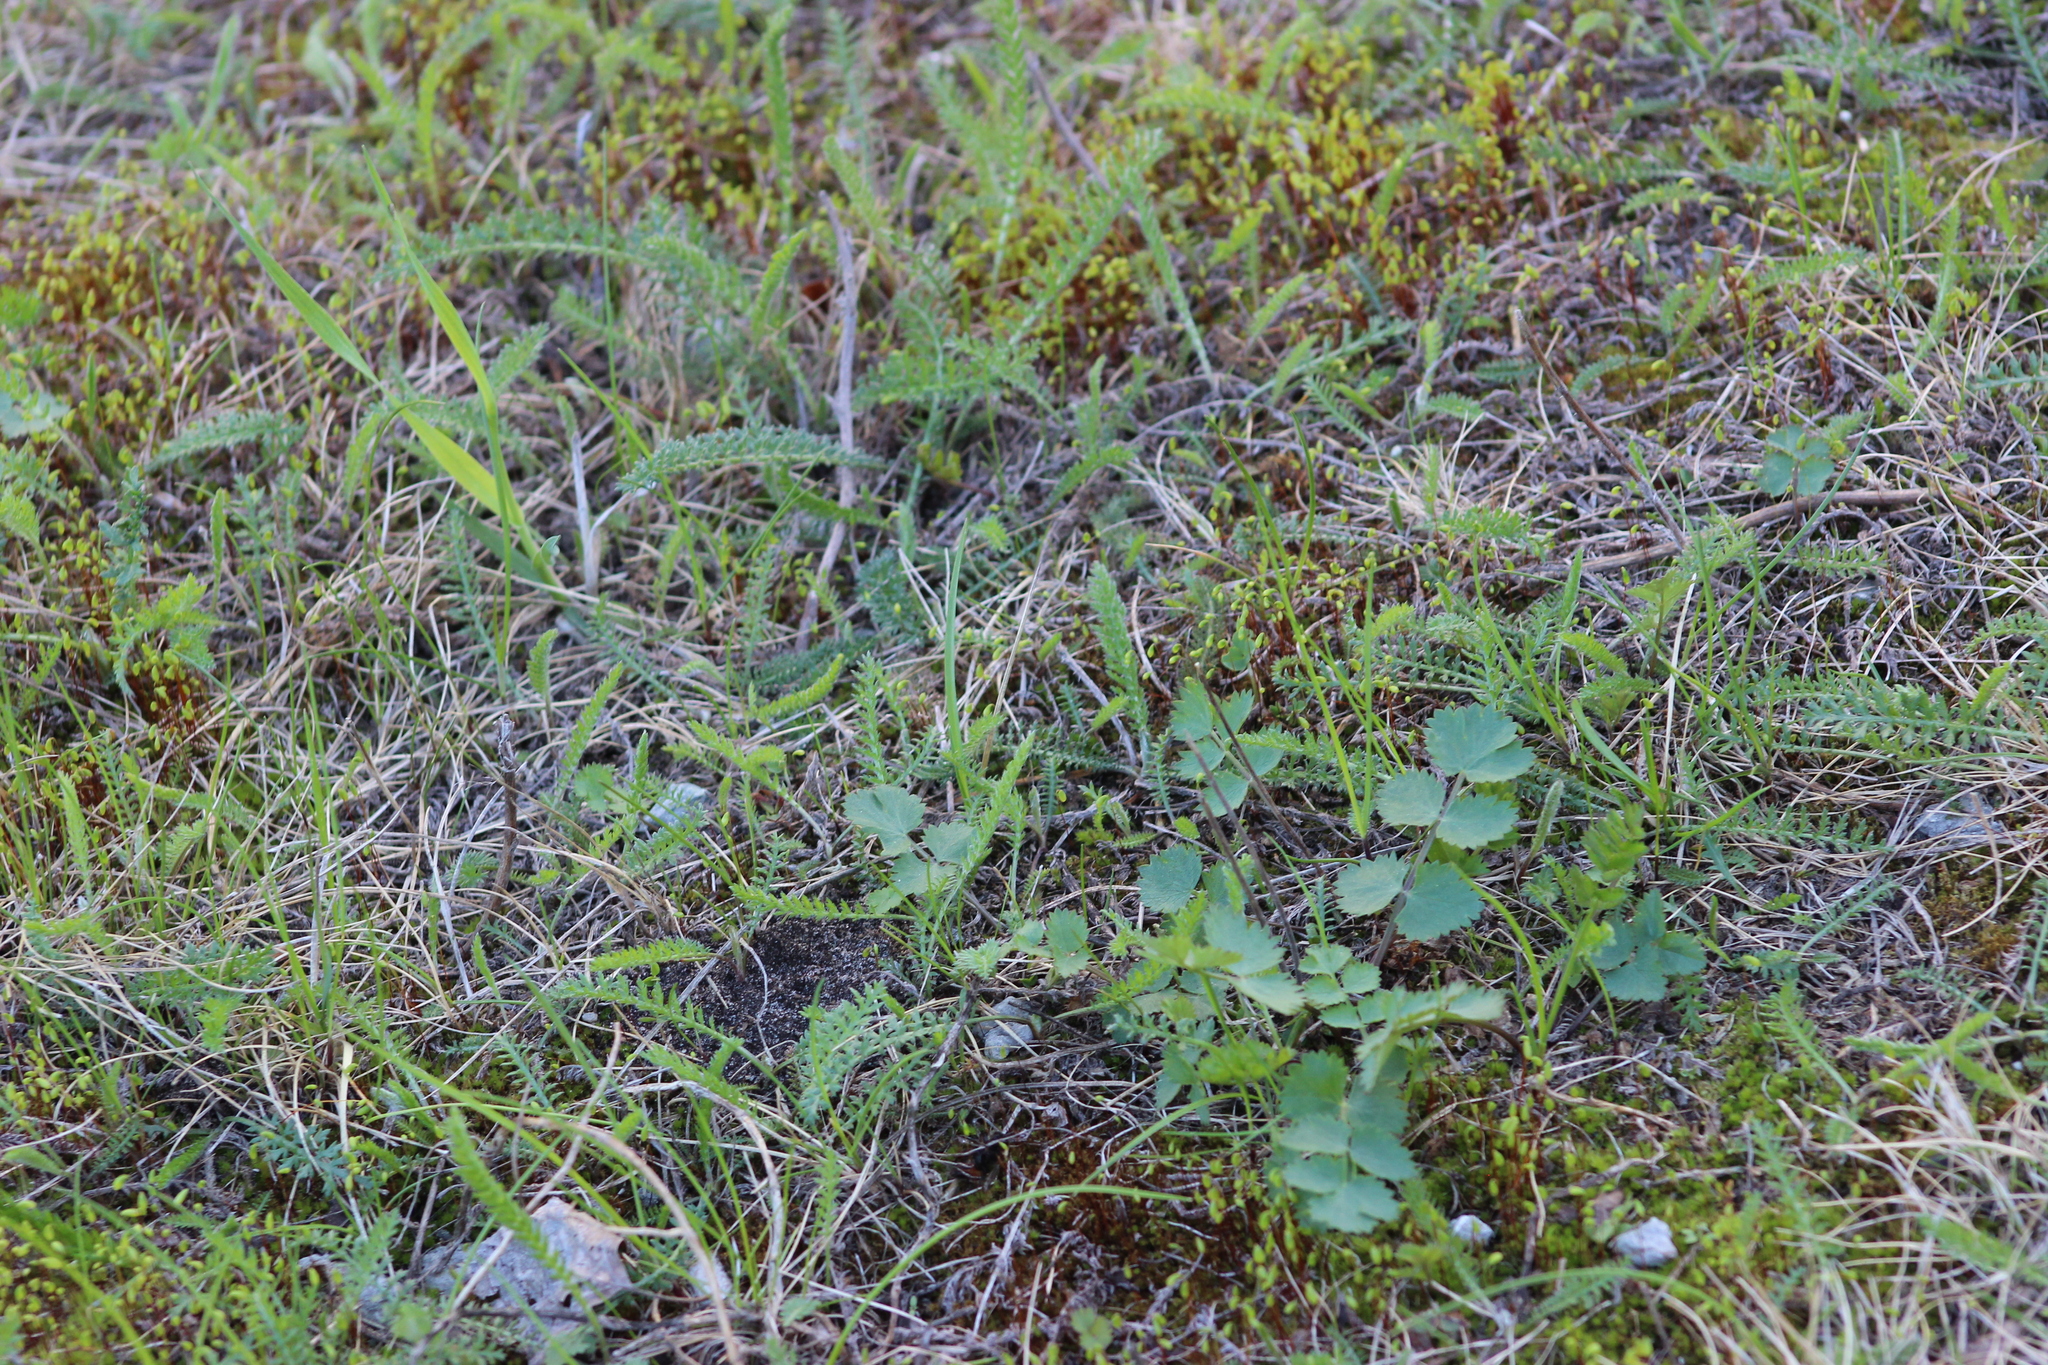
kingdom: Plantae
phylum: Tracheophyta
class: Magnoliopsida
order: Apiales
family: Apiaceae
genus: Pimpinella
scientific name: Pimpinella saxifraga
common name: Burnet-saxifrage
